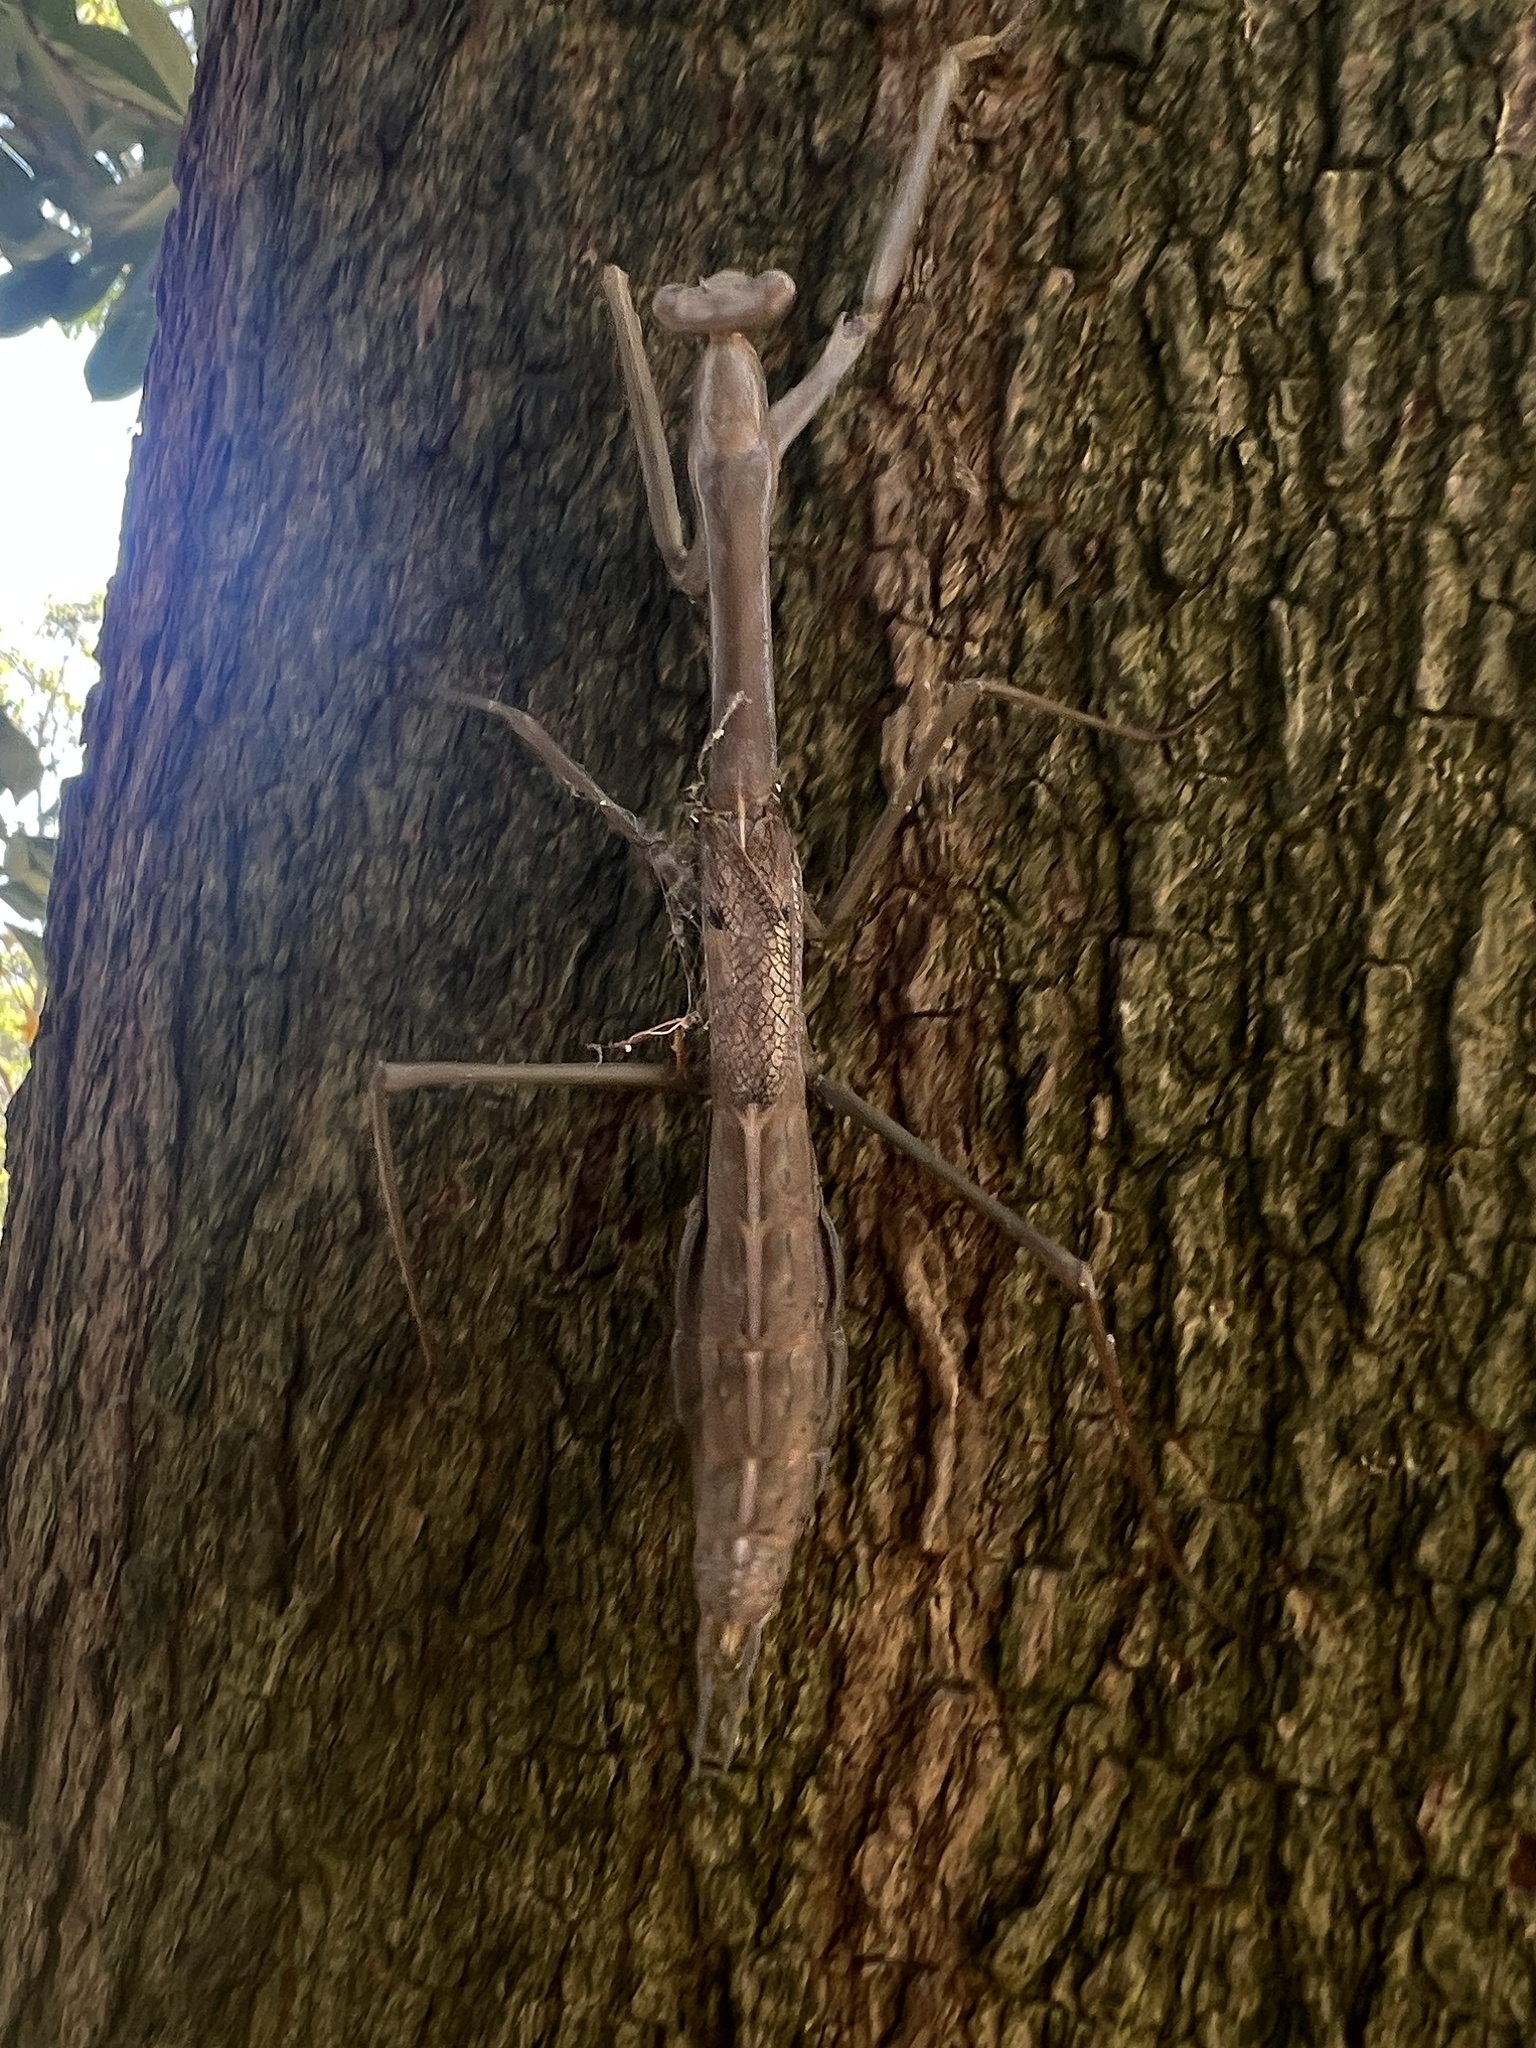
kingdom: Animalia
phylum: Arthropoda
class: Insecta
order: Mantodea
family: Mantidae
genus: Archimantis
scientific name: Archimantis sobrina
